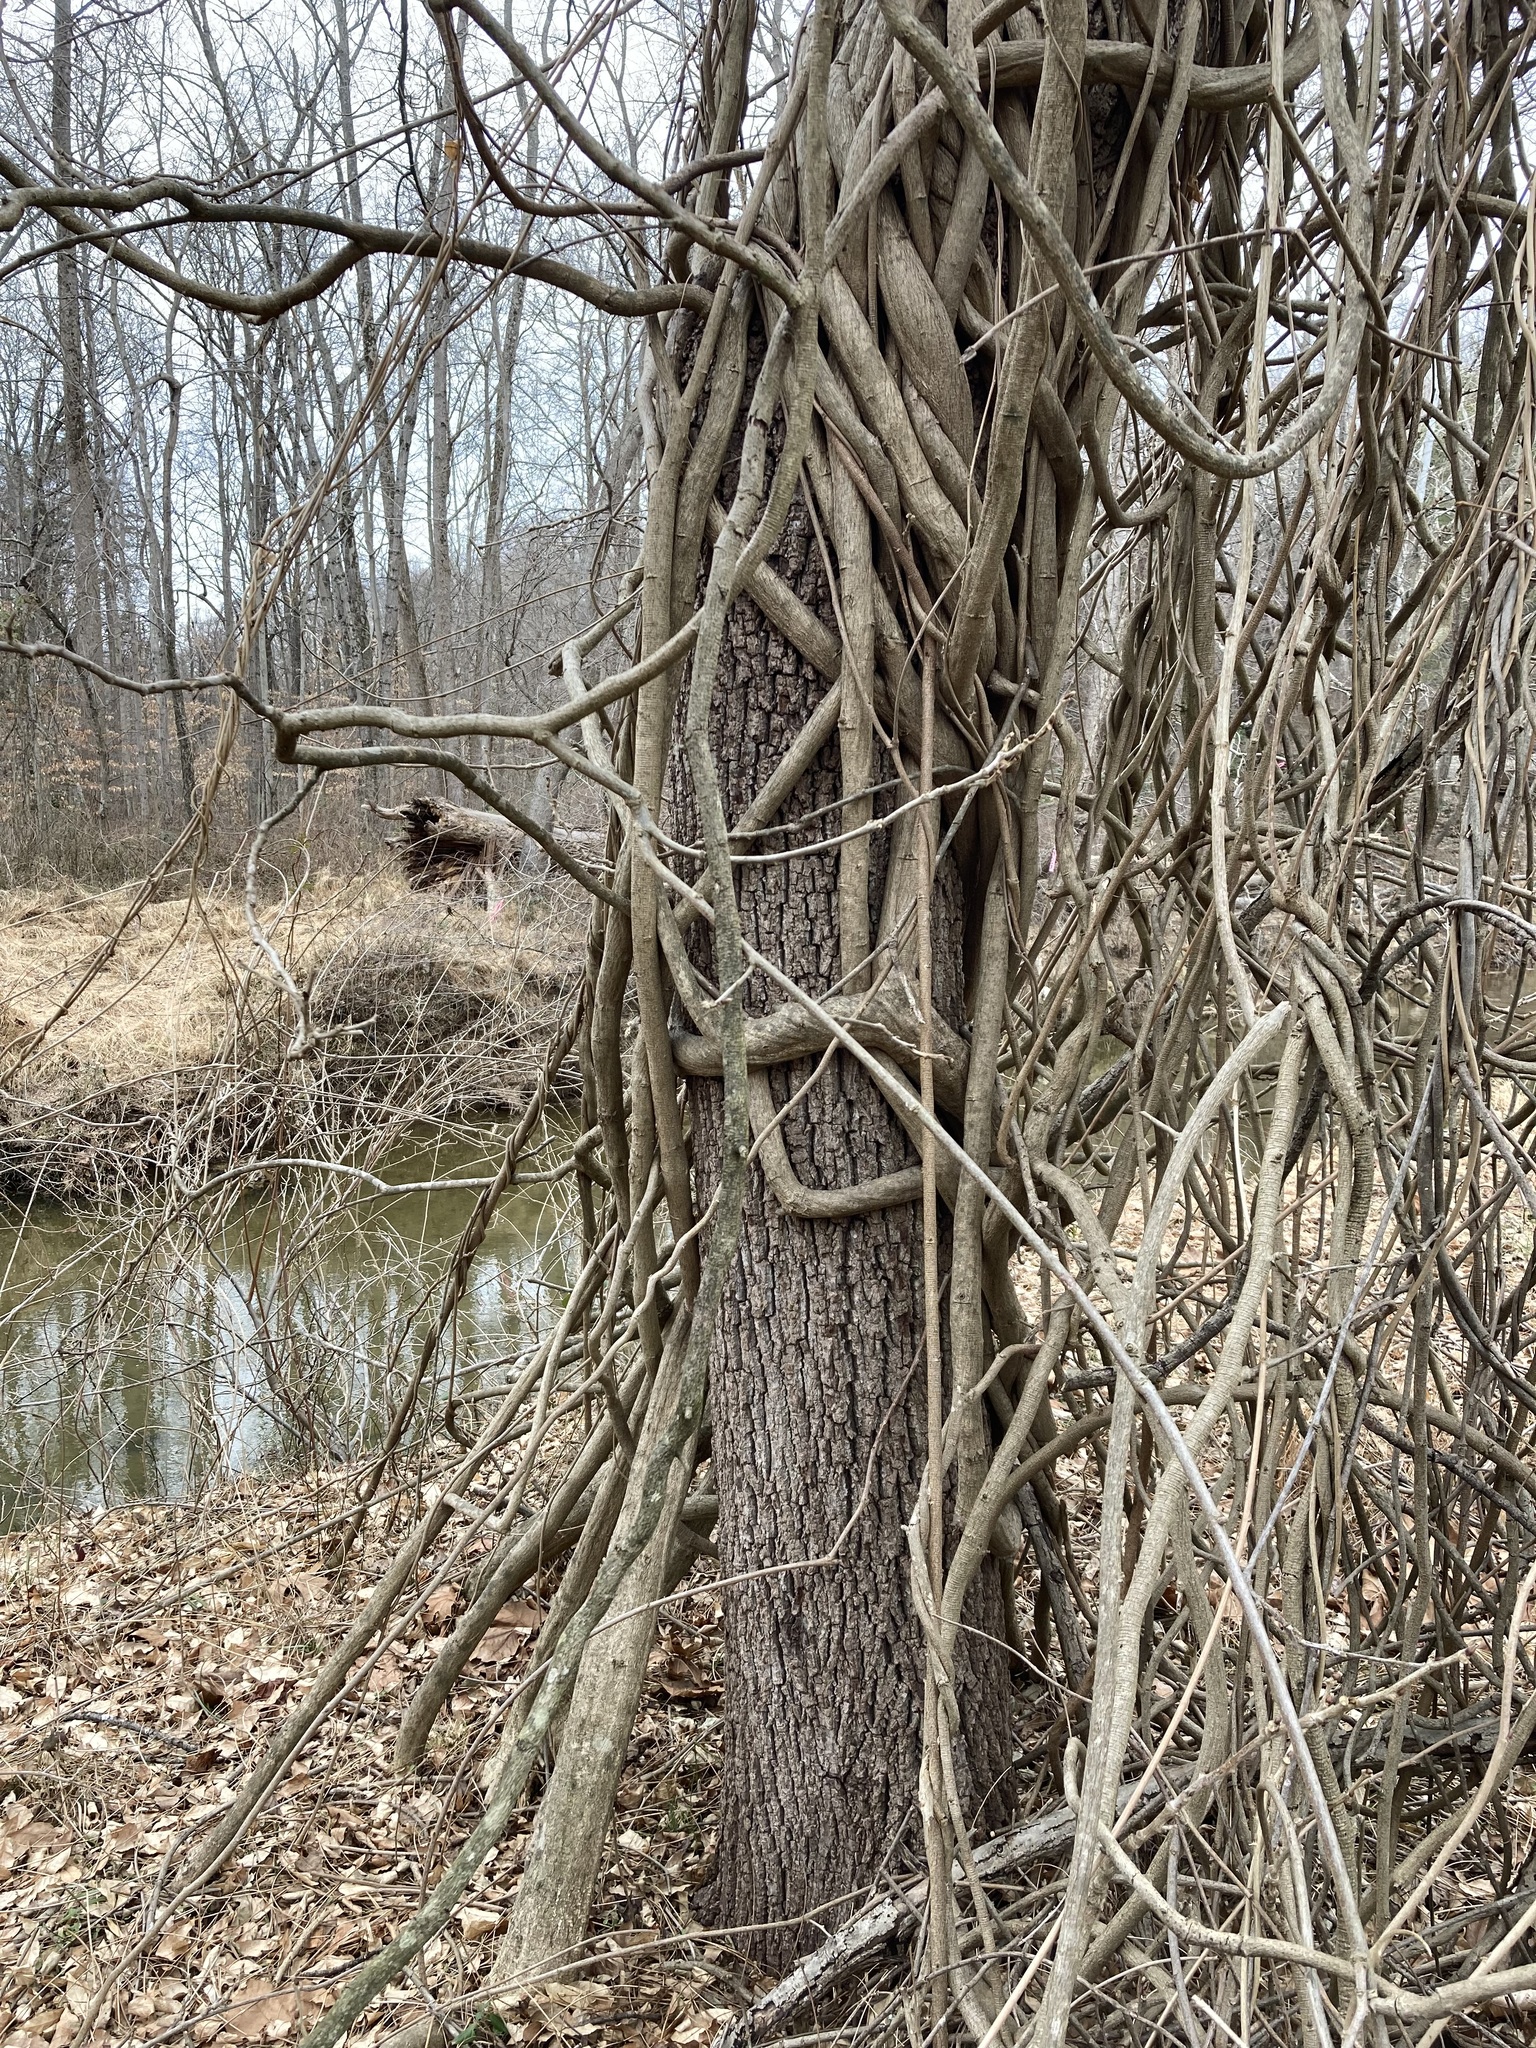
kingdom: Plantae
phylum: Tracheophyta
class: Magnoliopsida
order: Fabales
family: Fabaceae
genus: Wisteria
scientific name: Wisteria floribunda
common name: Japanese wisteria
